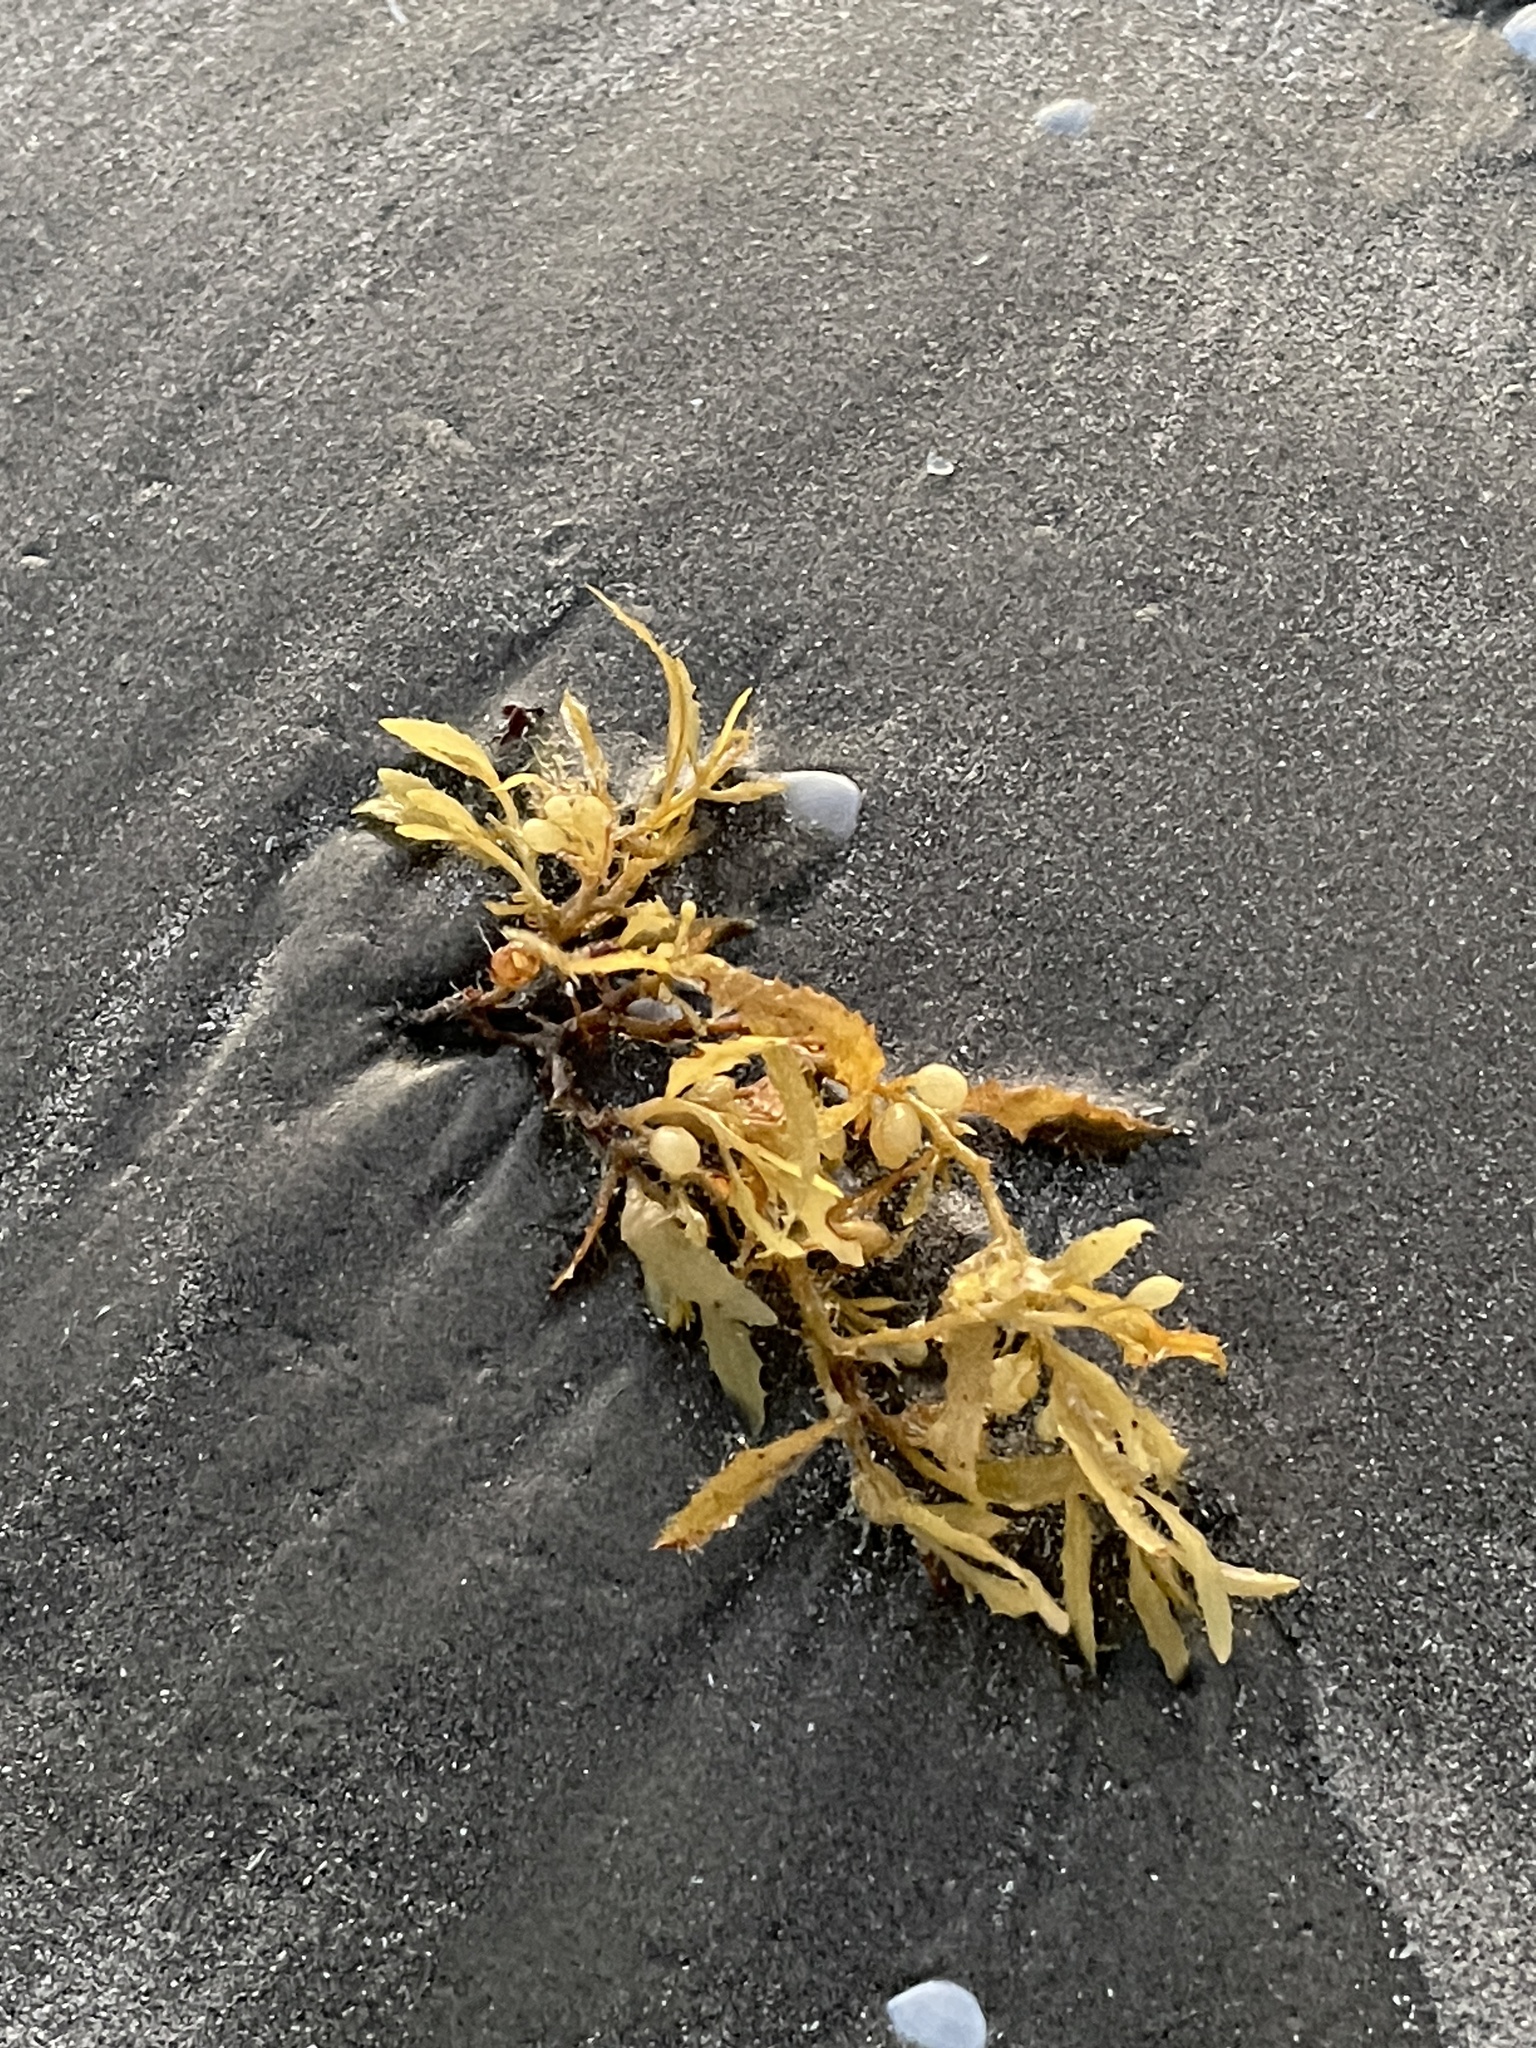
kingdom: Chromista
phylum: Ochrophyta
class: Phaeophyceae
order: Fucales
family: Sargassaceae
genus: Sargassum
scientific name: Sargassum fluitans
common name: Sargassum seaweed
